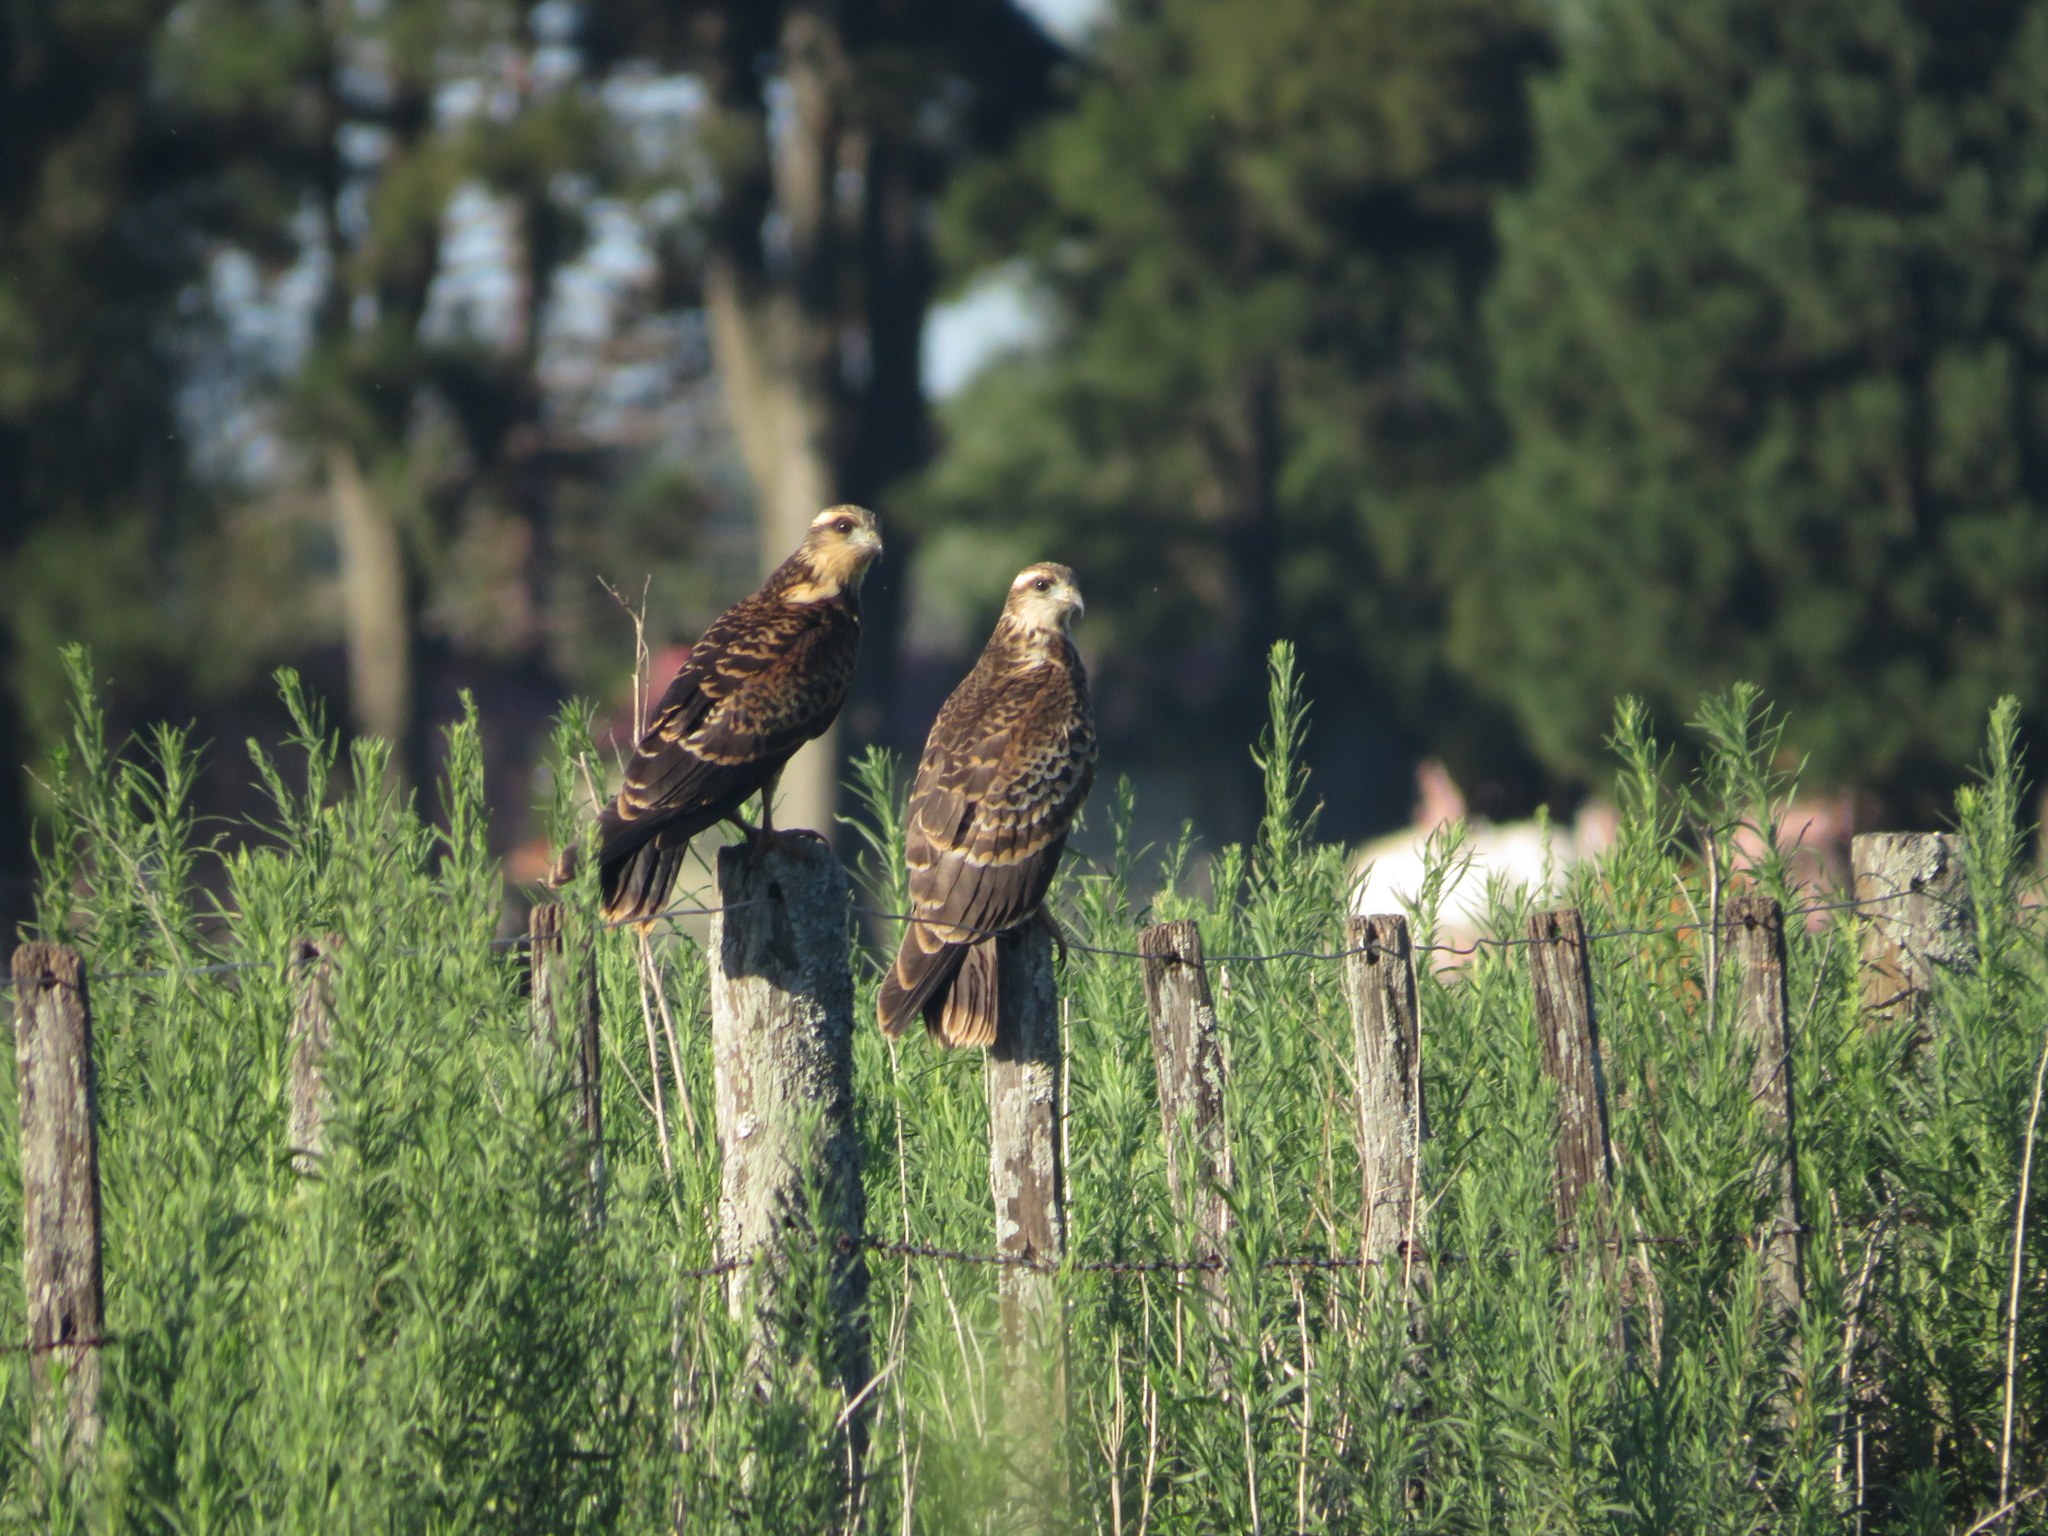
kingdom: Animalia
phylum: Chordata
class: Aves
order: Accipitriformes
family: Accipitridae
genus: Rostrhamus
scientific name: Rostrhamus sociabilis
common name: Snail kite
